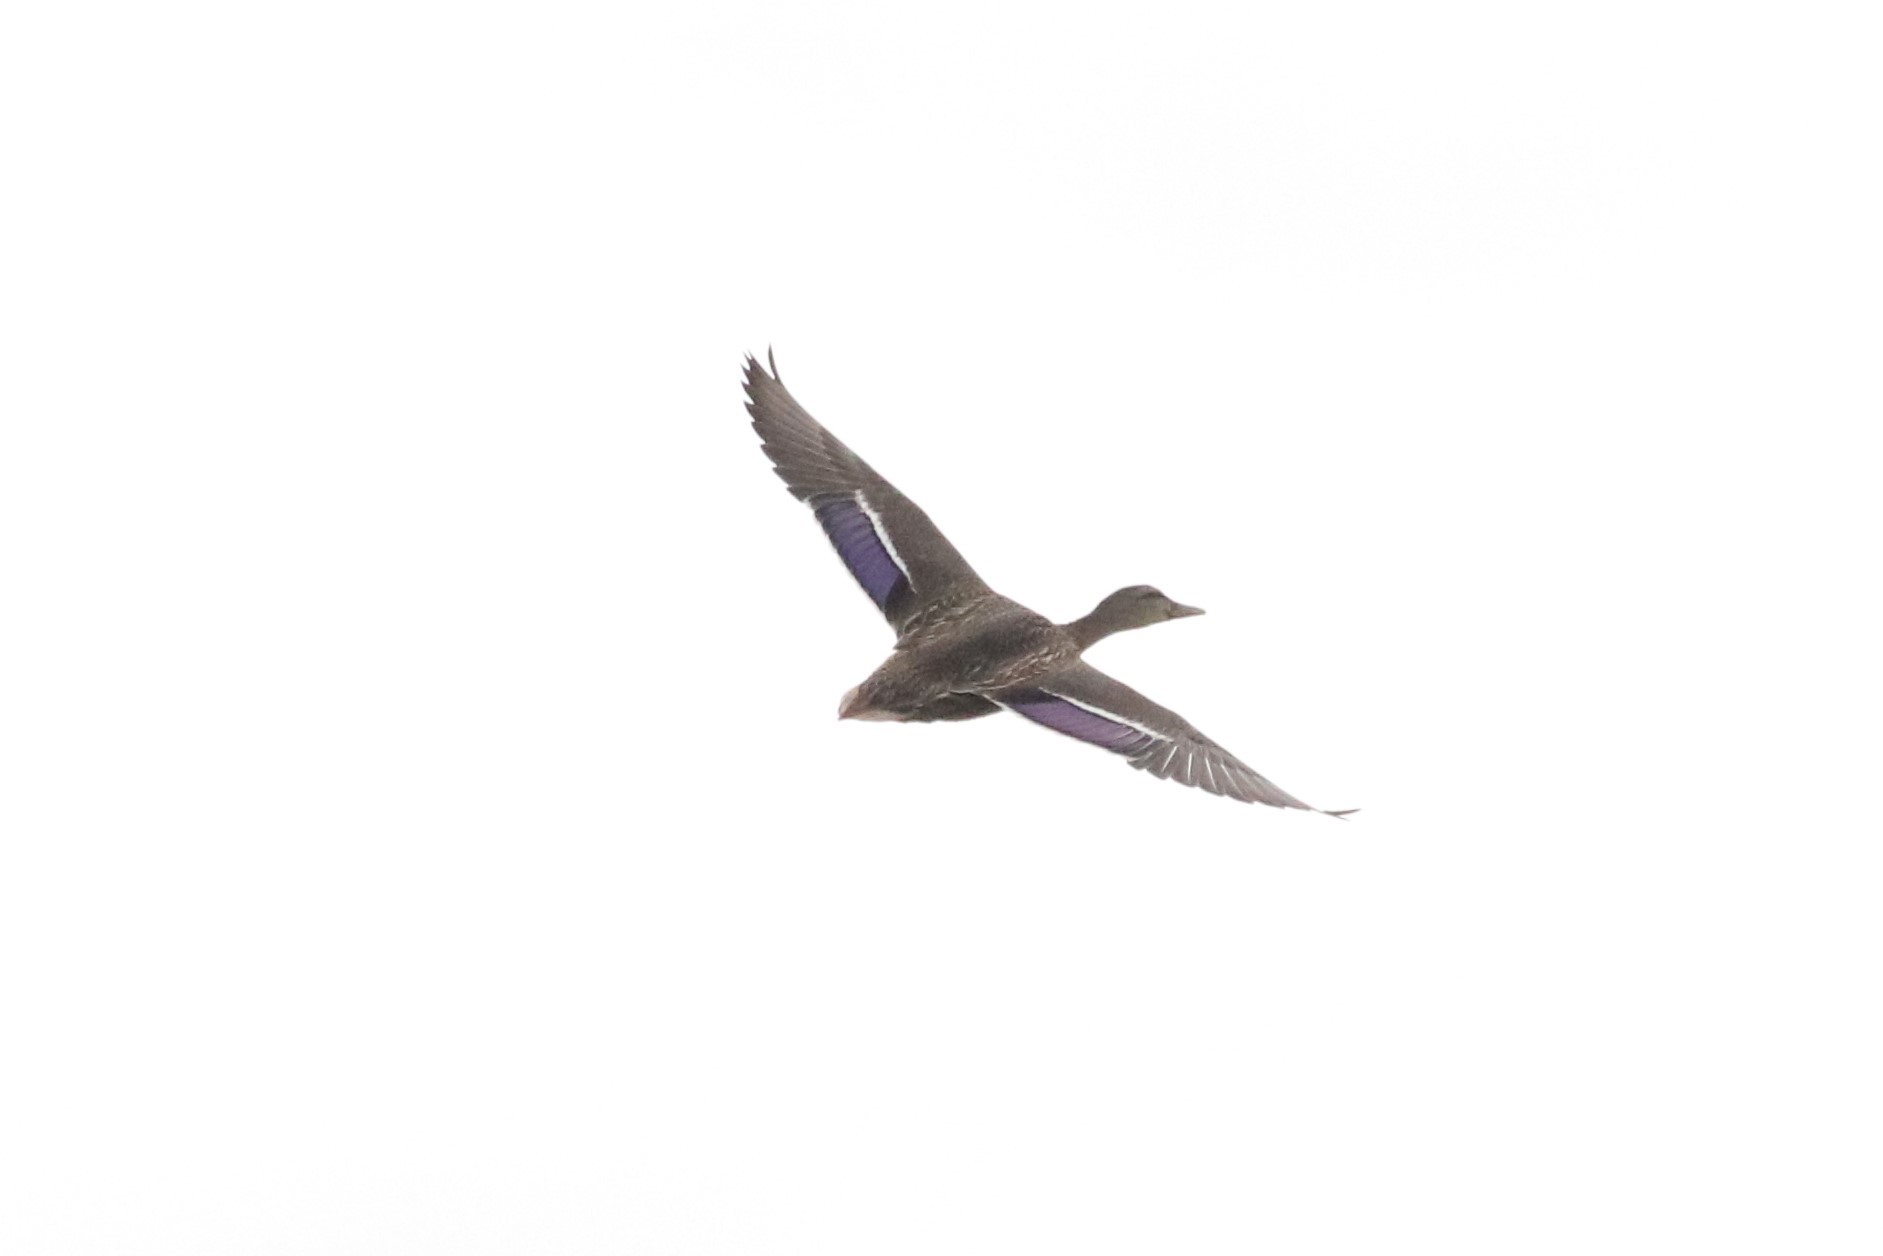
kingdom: Animalia
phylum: Chordata
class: Aves
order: Anseriformes
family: Anatidae
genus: Anas
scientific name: Anas rubripes
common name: American black duck
